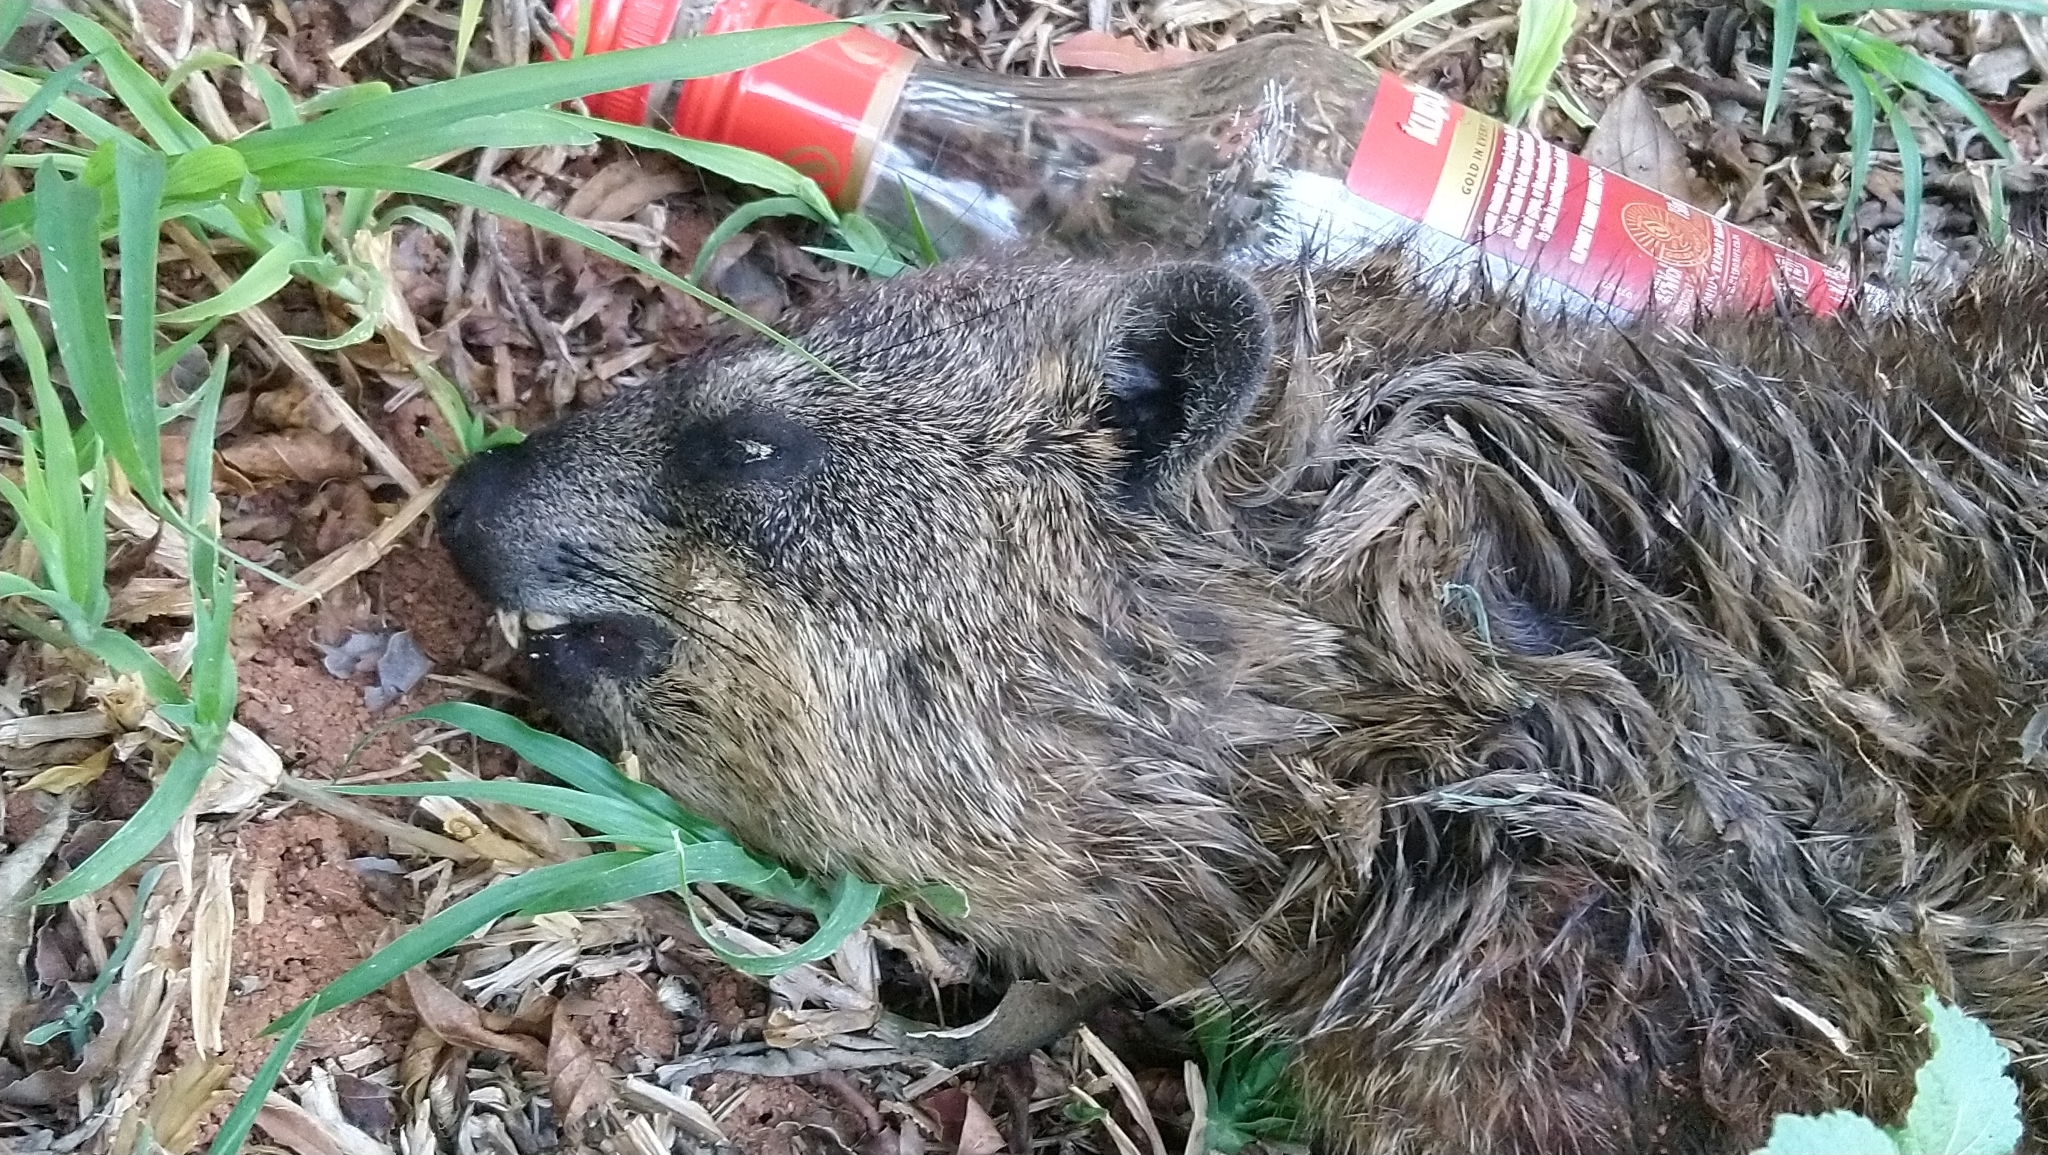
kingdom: Animalia
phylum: Chordata
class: Mammalia
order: Hyracoidea
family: Procaviidae
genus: Procavia
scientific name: Procavia capensis
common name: Rock hyrax
